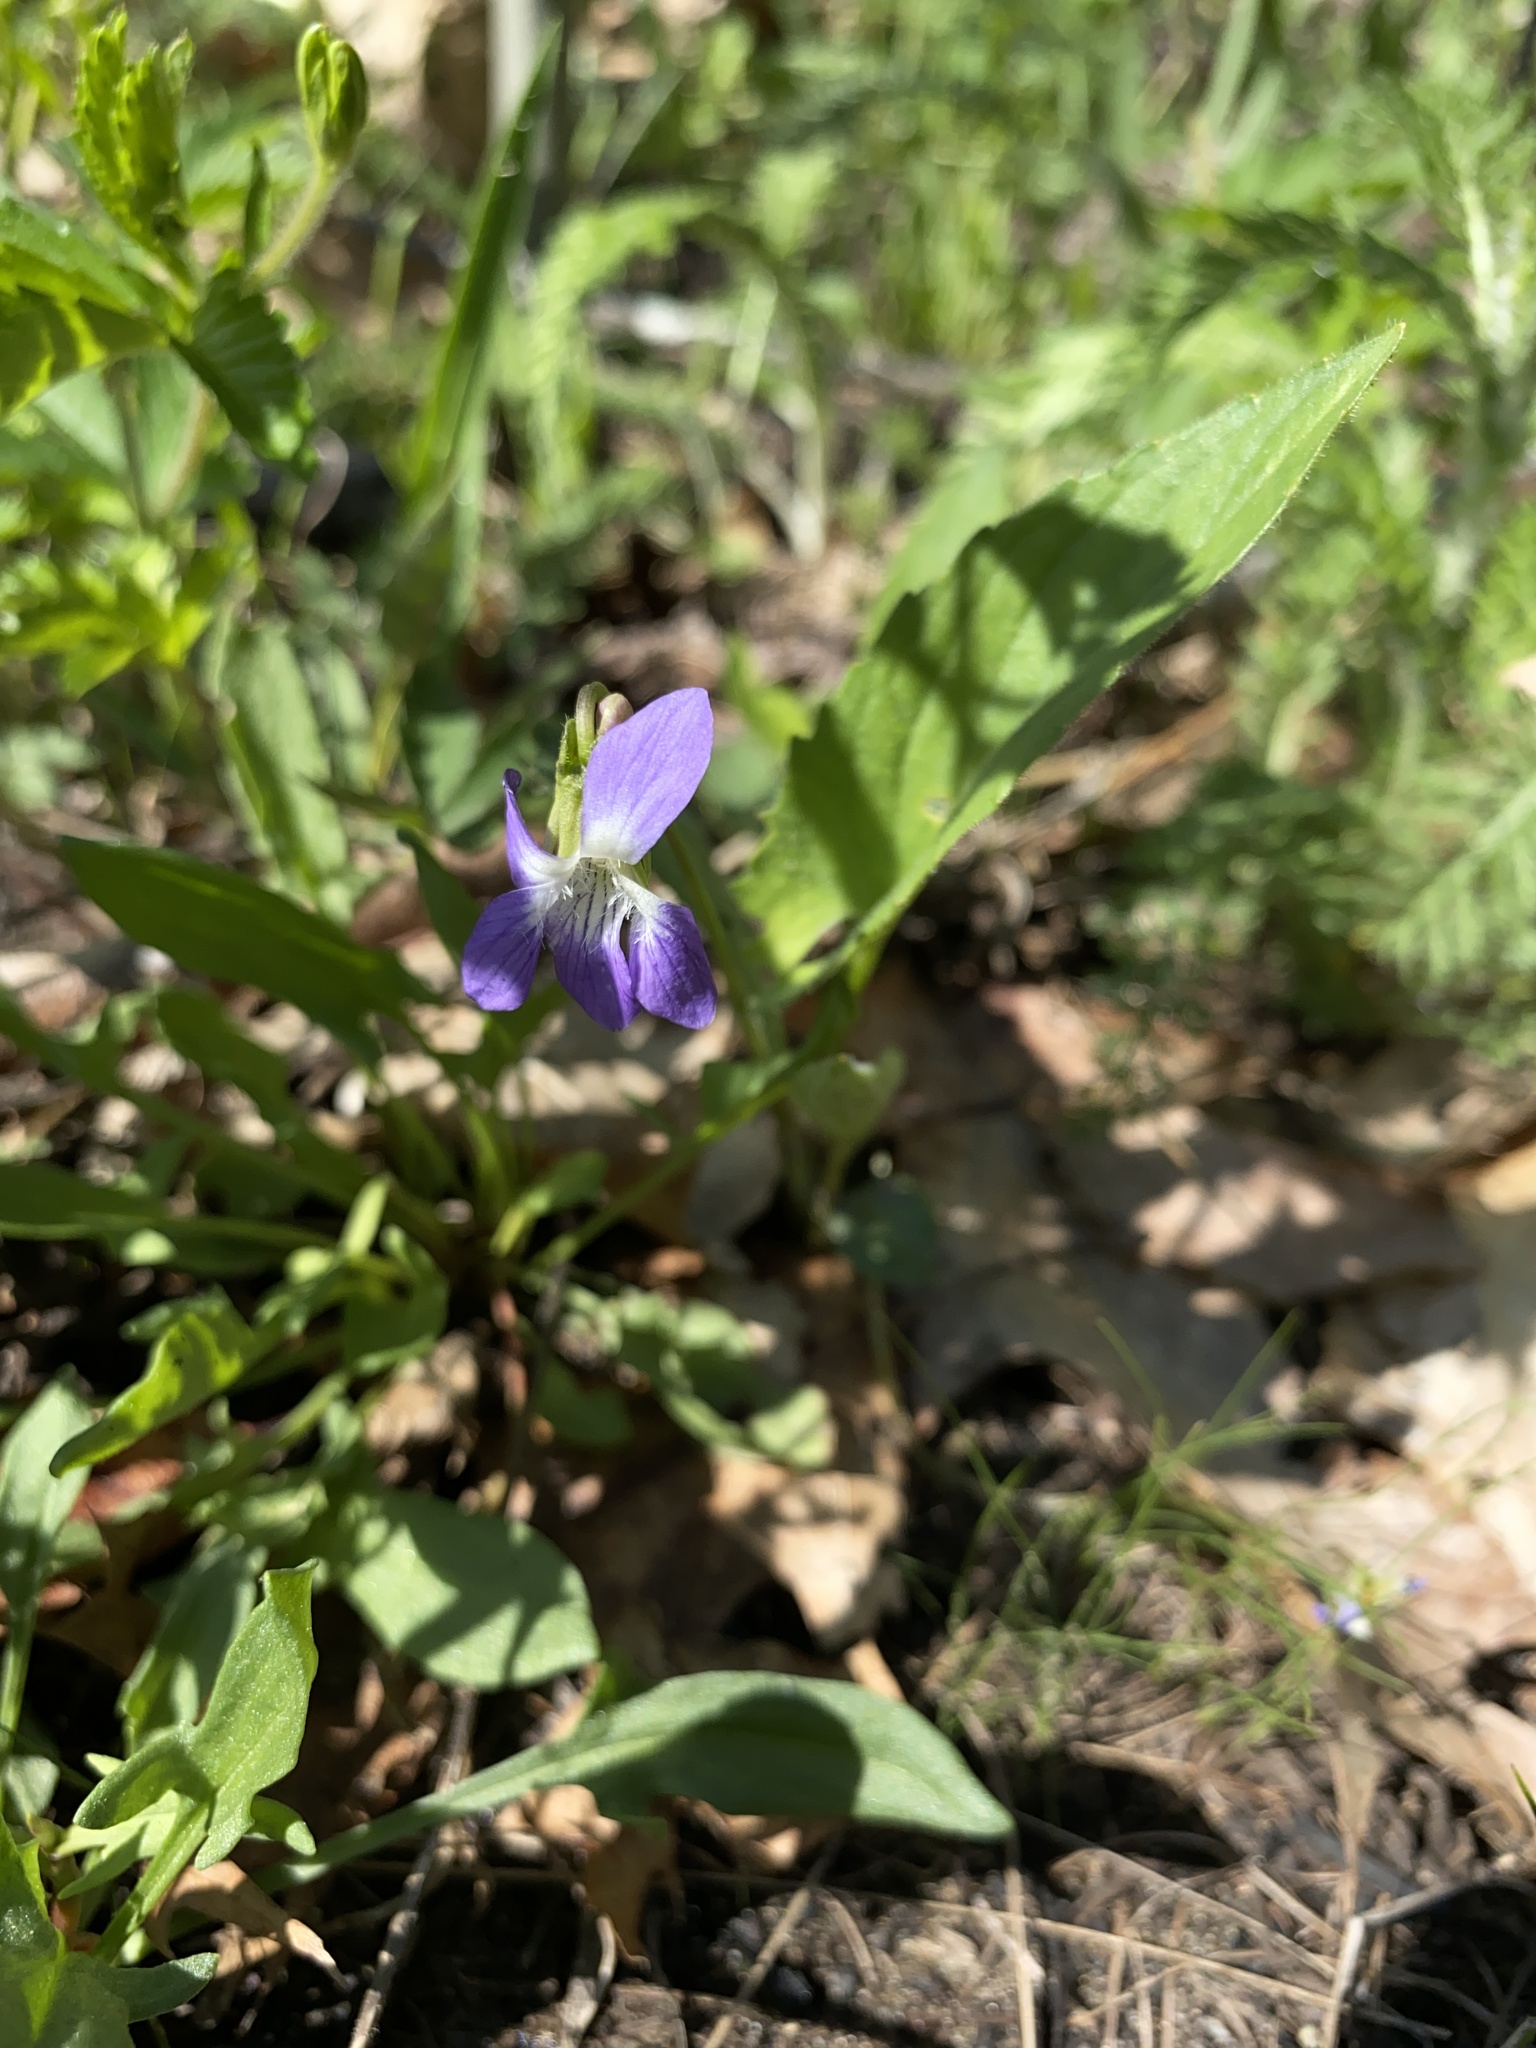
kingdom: Plantae
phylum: Tracheophyta
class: Magnoliopsida
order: Malpighiales
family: Violaceae
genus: Viola
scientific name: Viola sagittata
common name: Arrowhead violet
